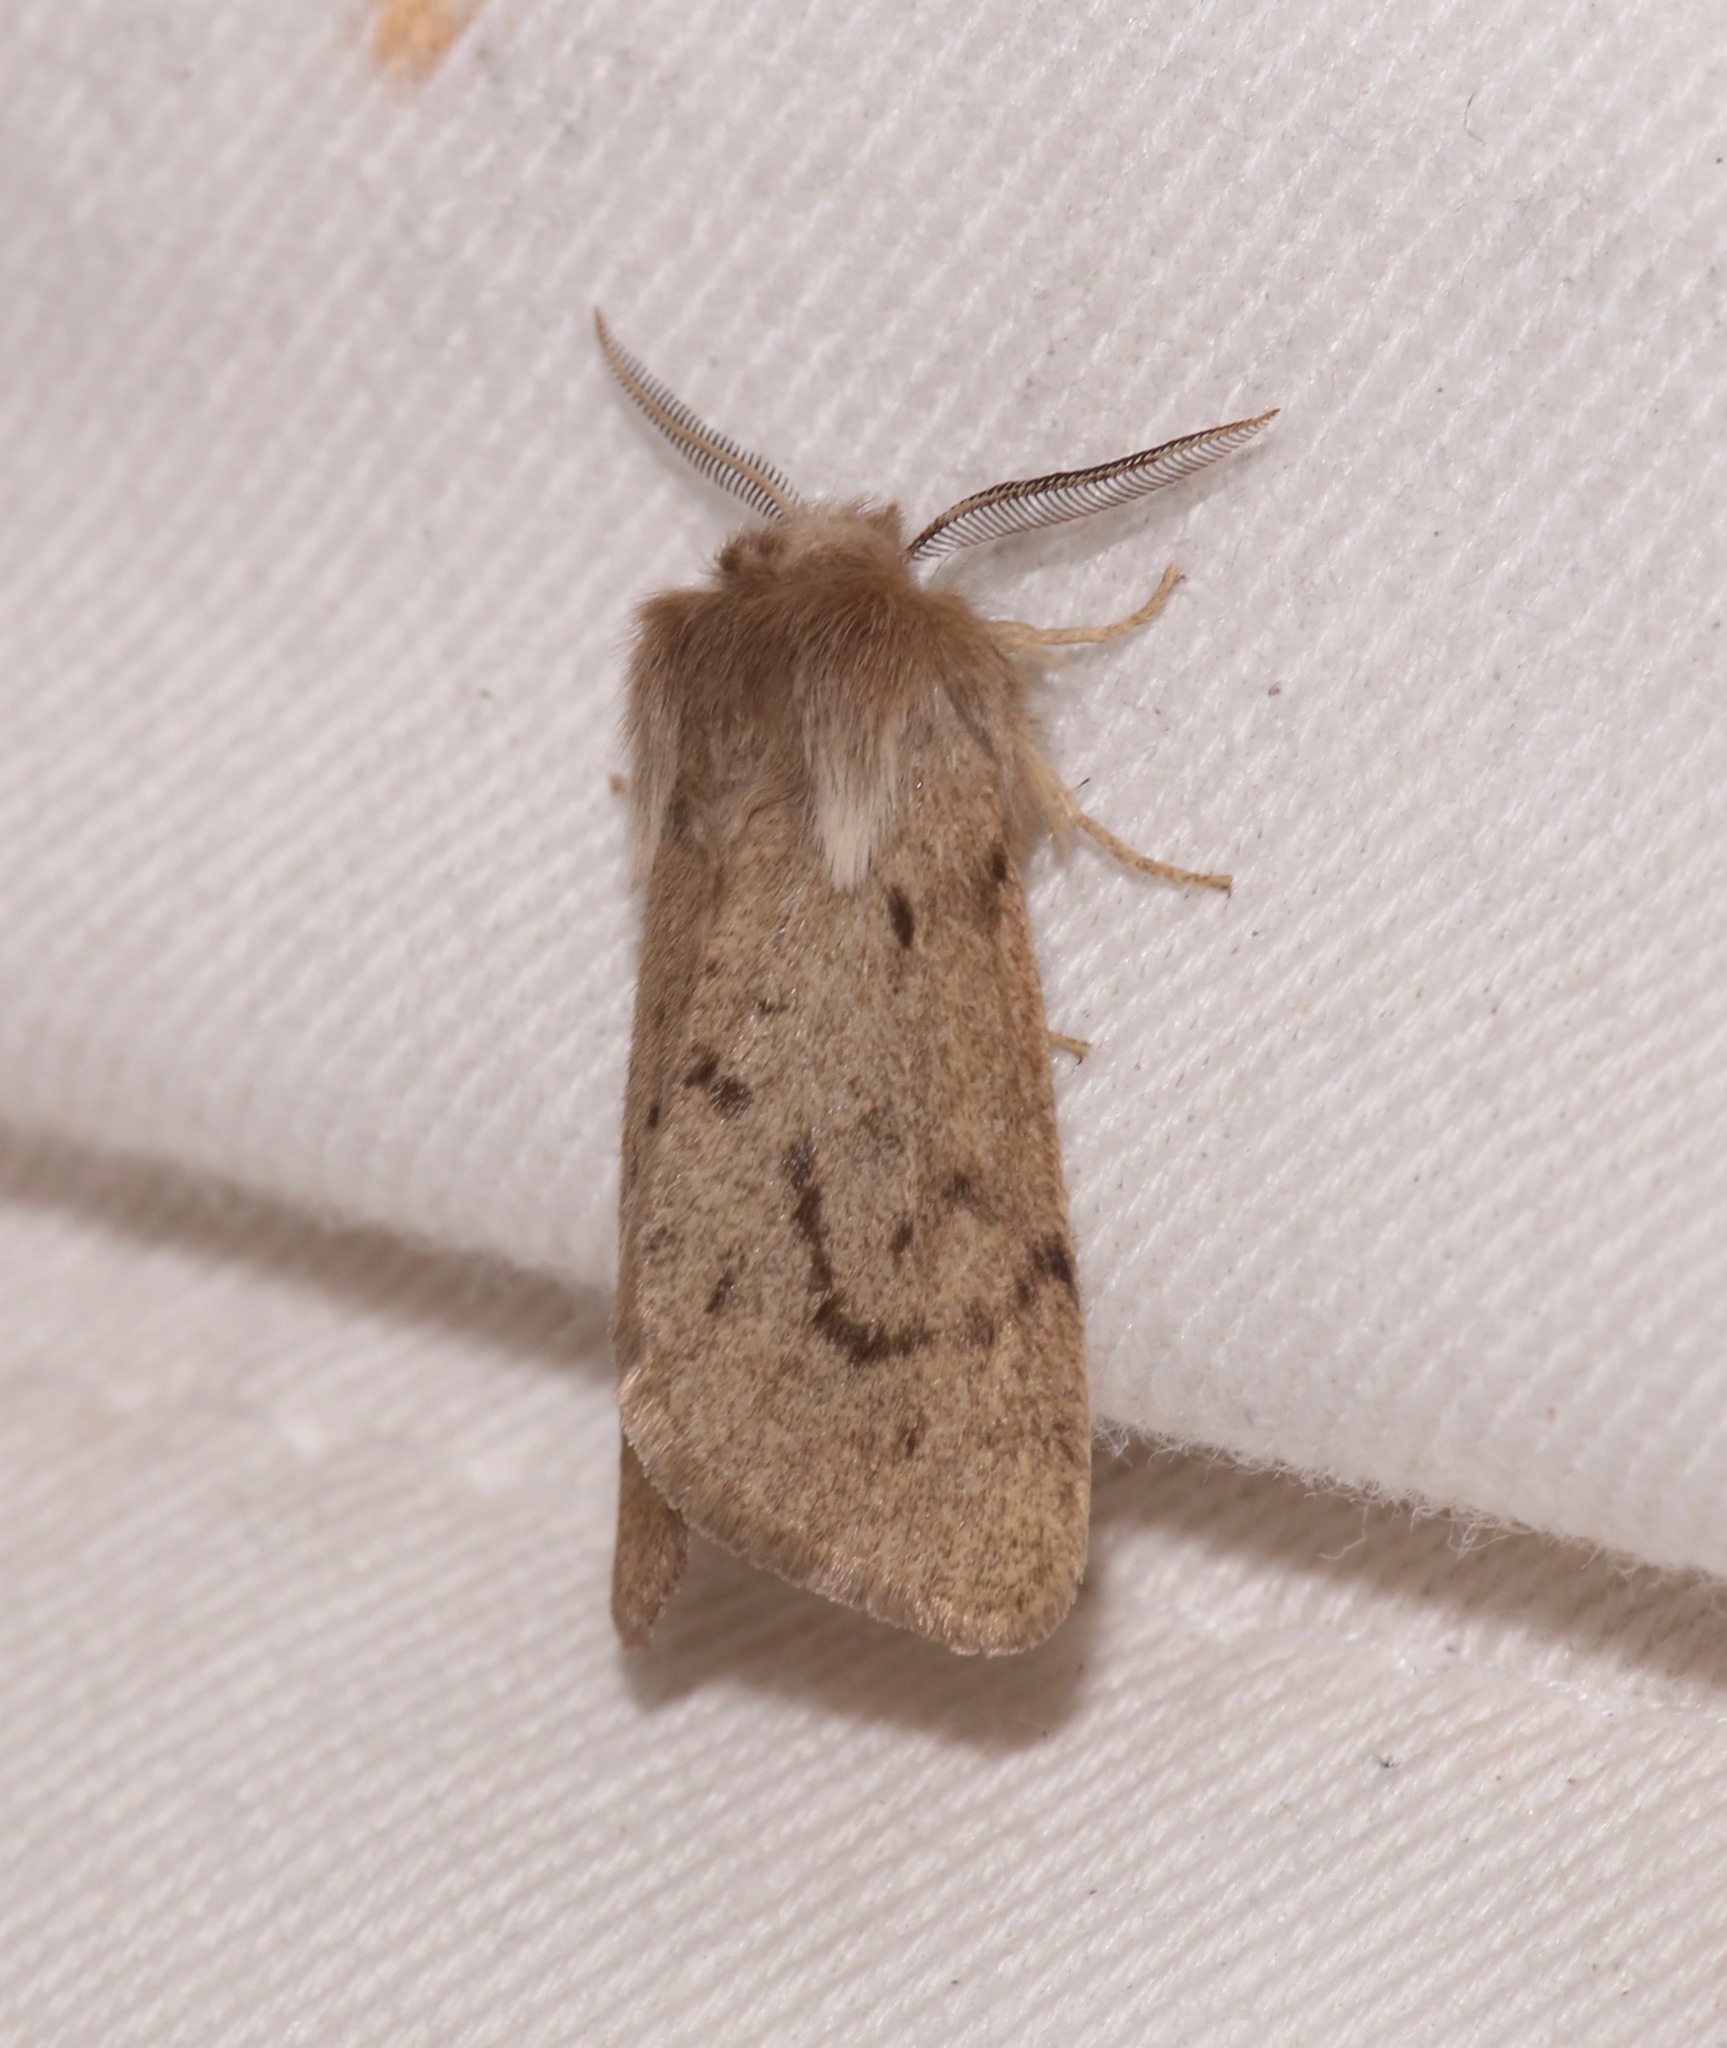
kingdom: Animalia
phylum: Arthropoda
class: Insecta
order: Lepidoptera
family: Erebidae
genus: Spilosoma
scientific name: Spilosoma vagans
